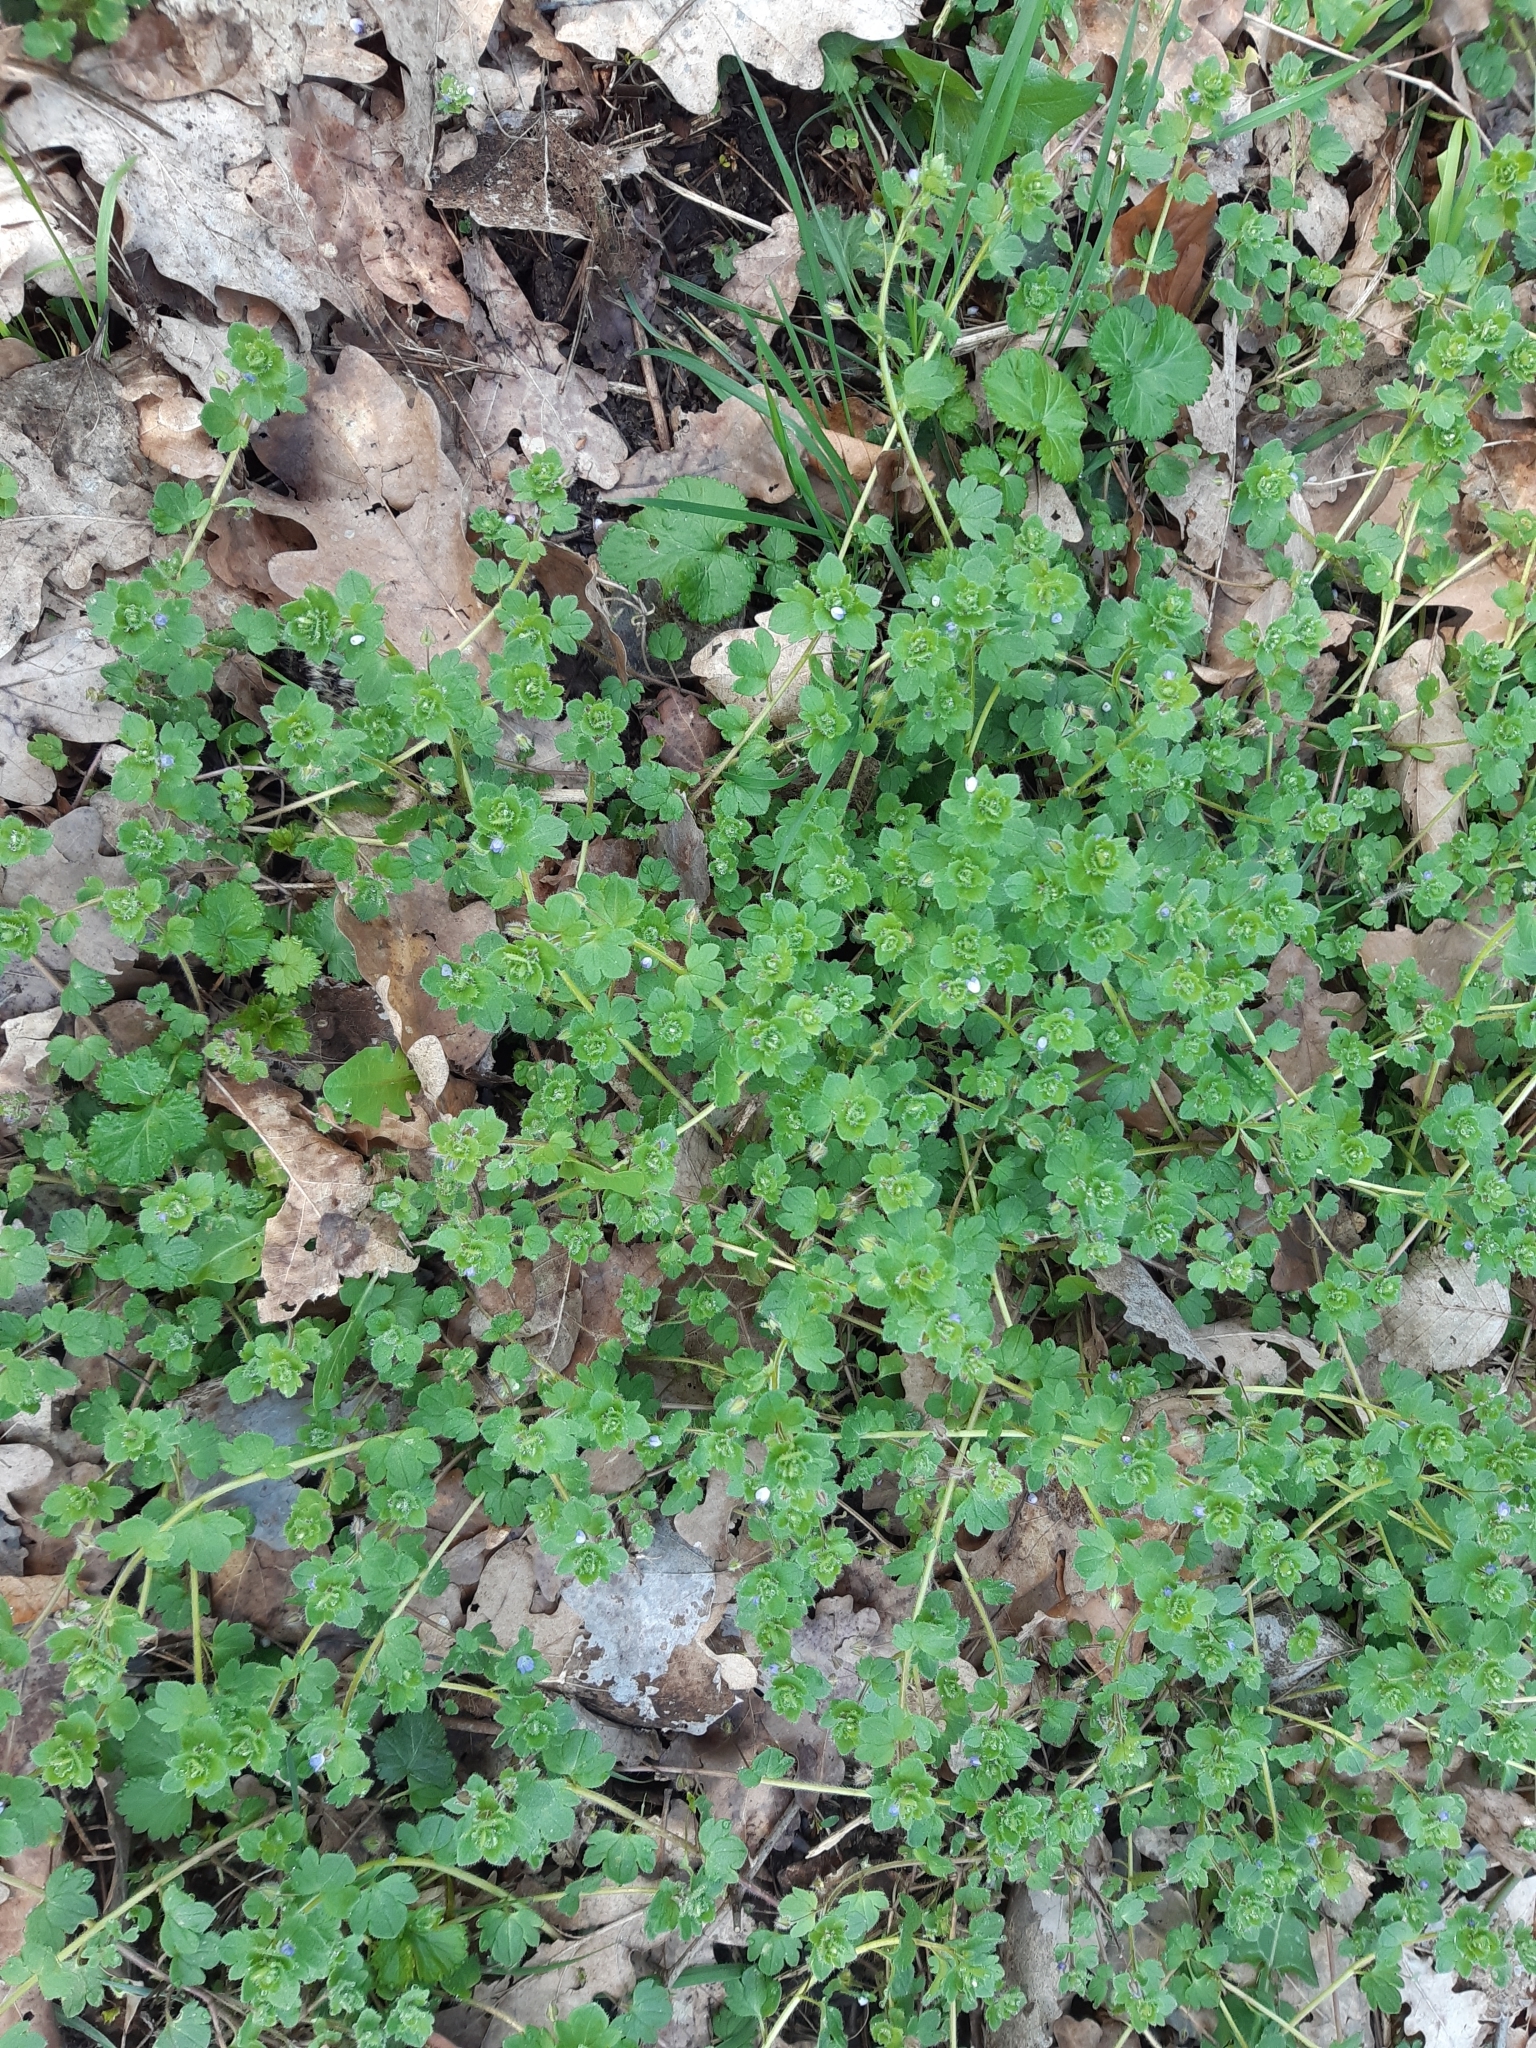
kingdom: Plantae
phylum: Tracheophyta
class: Magnoliopsida
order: Lamiales
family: Plantaginaceae
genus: Veronica
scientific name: Veronica hederifolia
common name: Ivy-leaved speedwell
